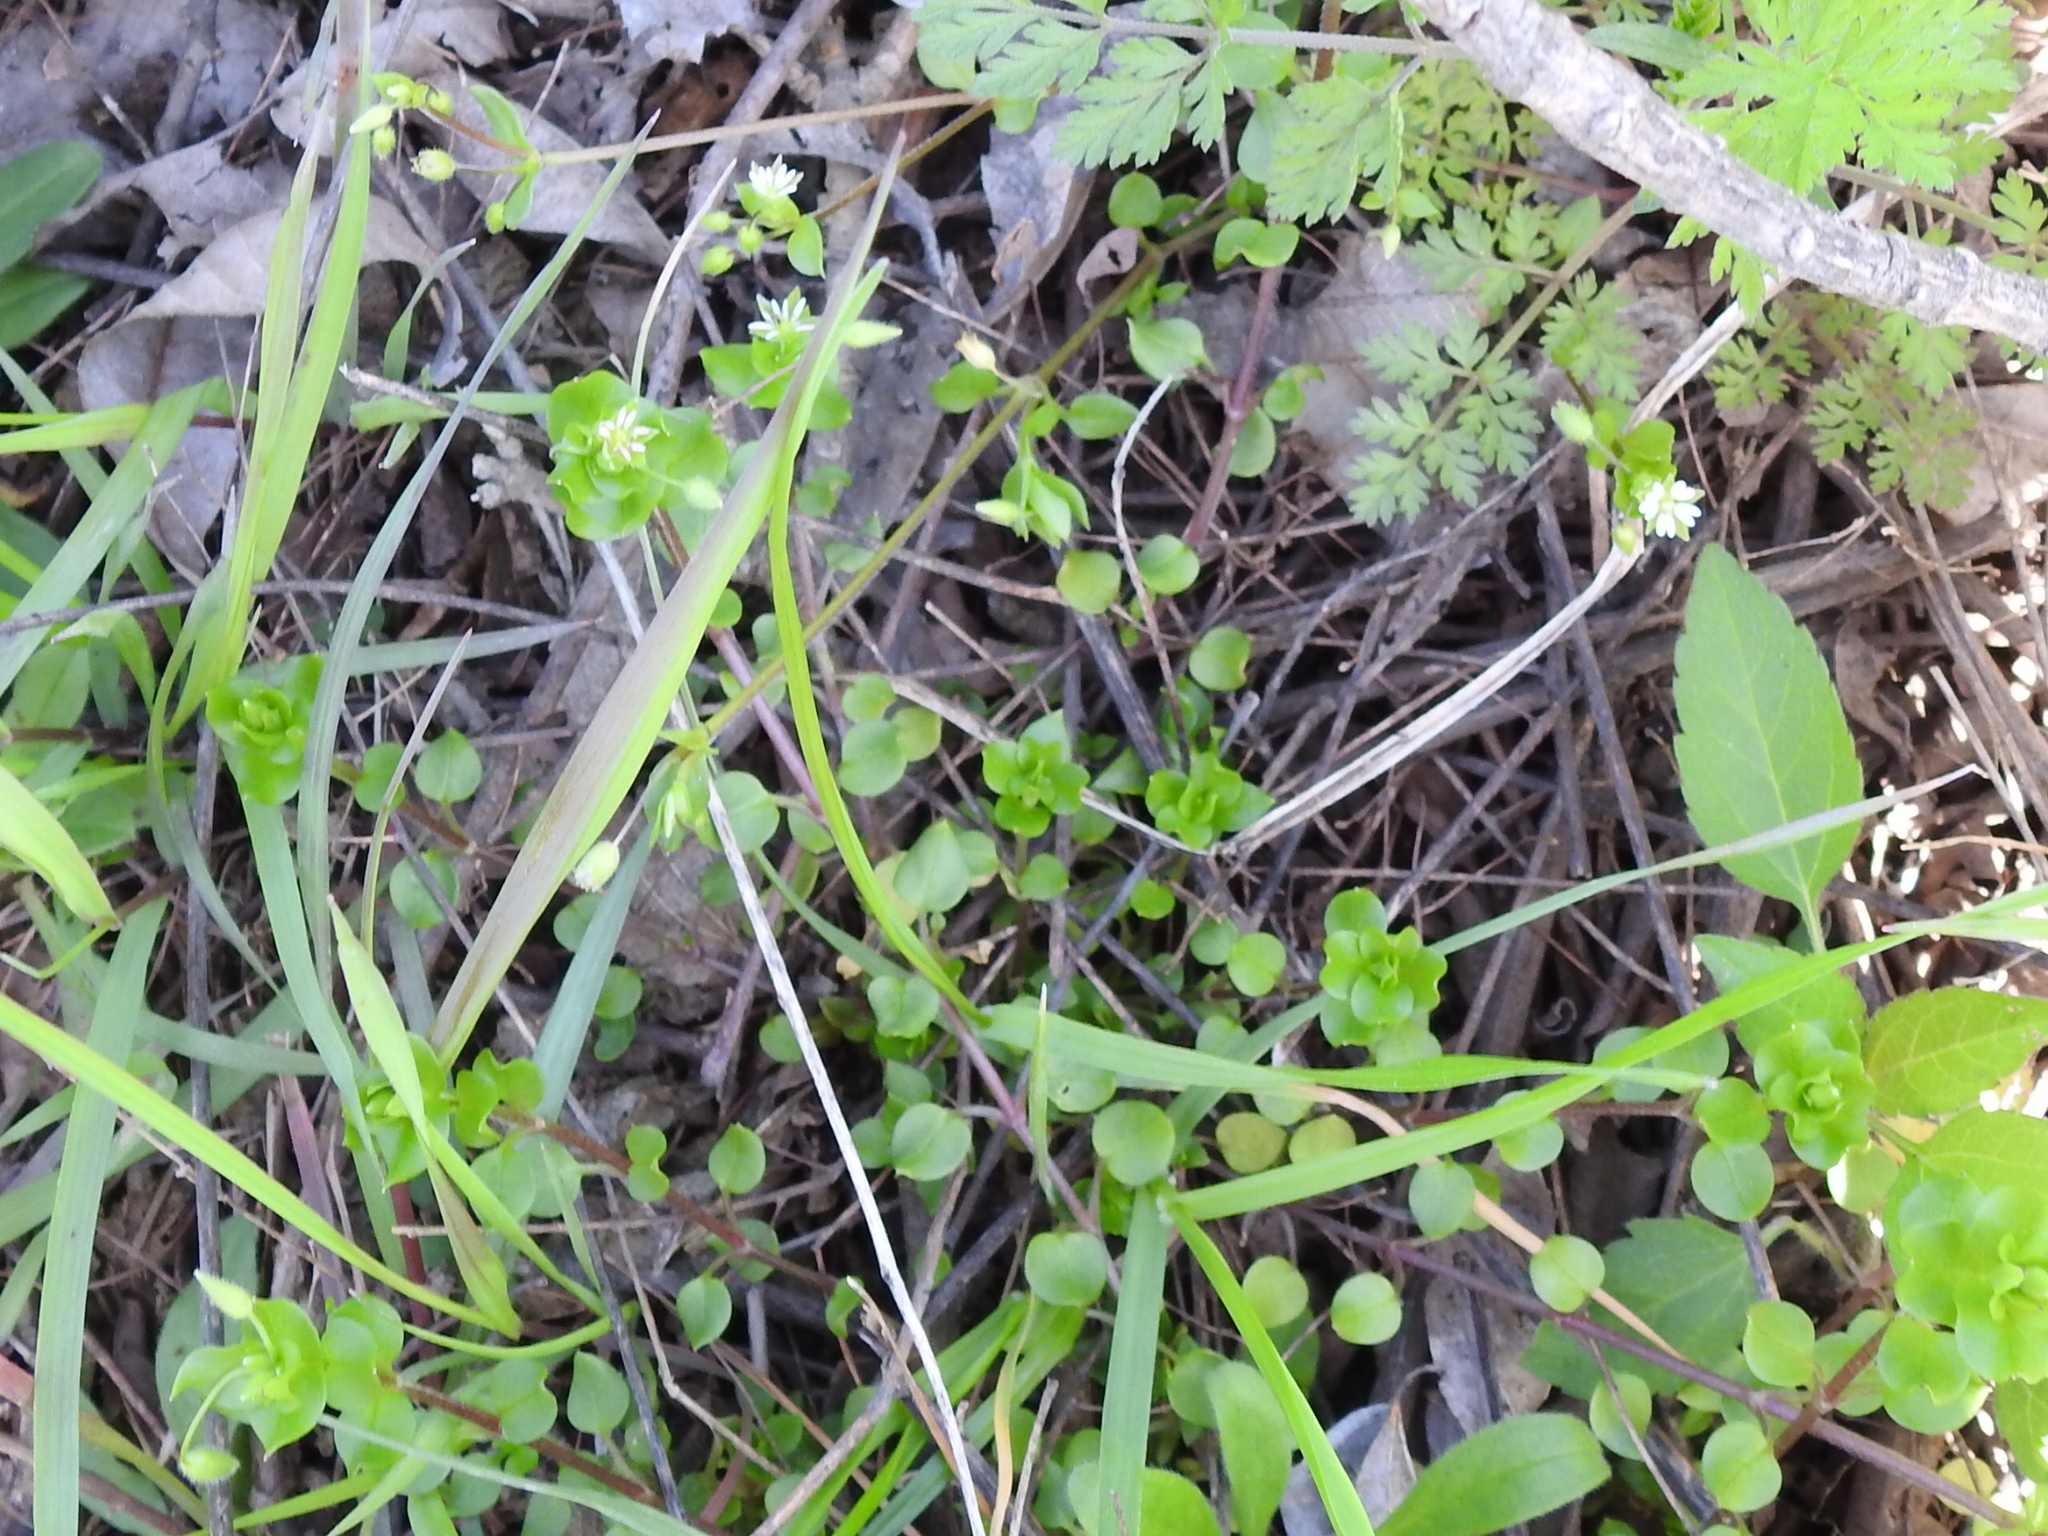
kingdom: Plantae
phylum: Tracheophyta
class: Magnoliopsida
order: Caryophyllales
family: Caryophyllaceae
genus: Stellaria
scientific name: Stellaria media
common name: Common chickweed
